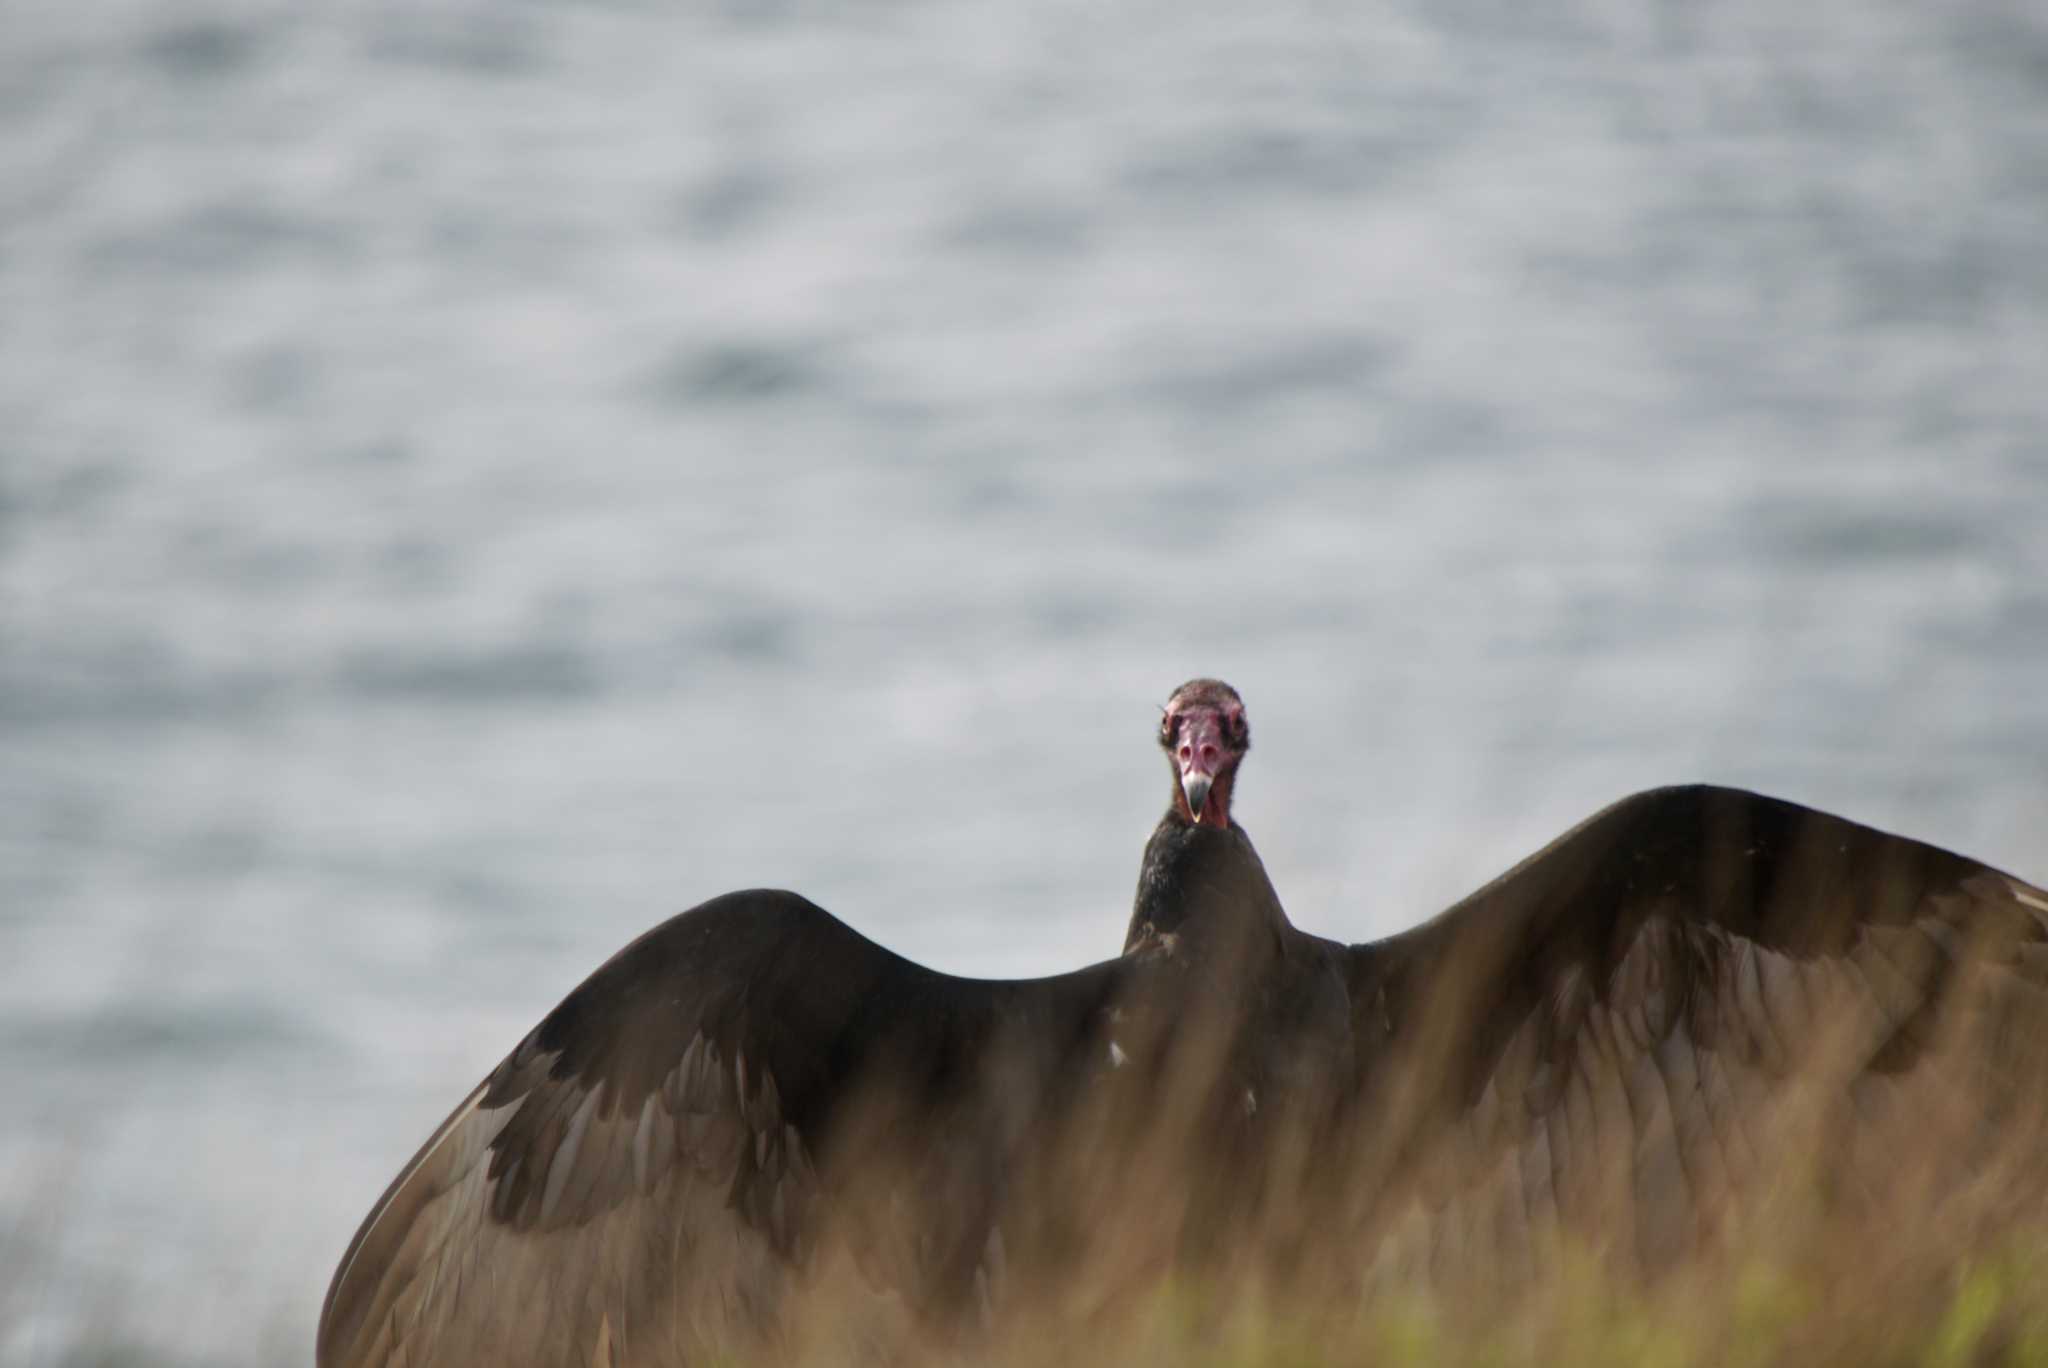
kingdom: Animalia
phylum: Chordata
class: Aves
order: Accipitriformes
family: Cathartidae
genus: Cathartes
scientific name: Cathartes aura
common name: Turkey vulture
